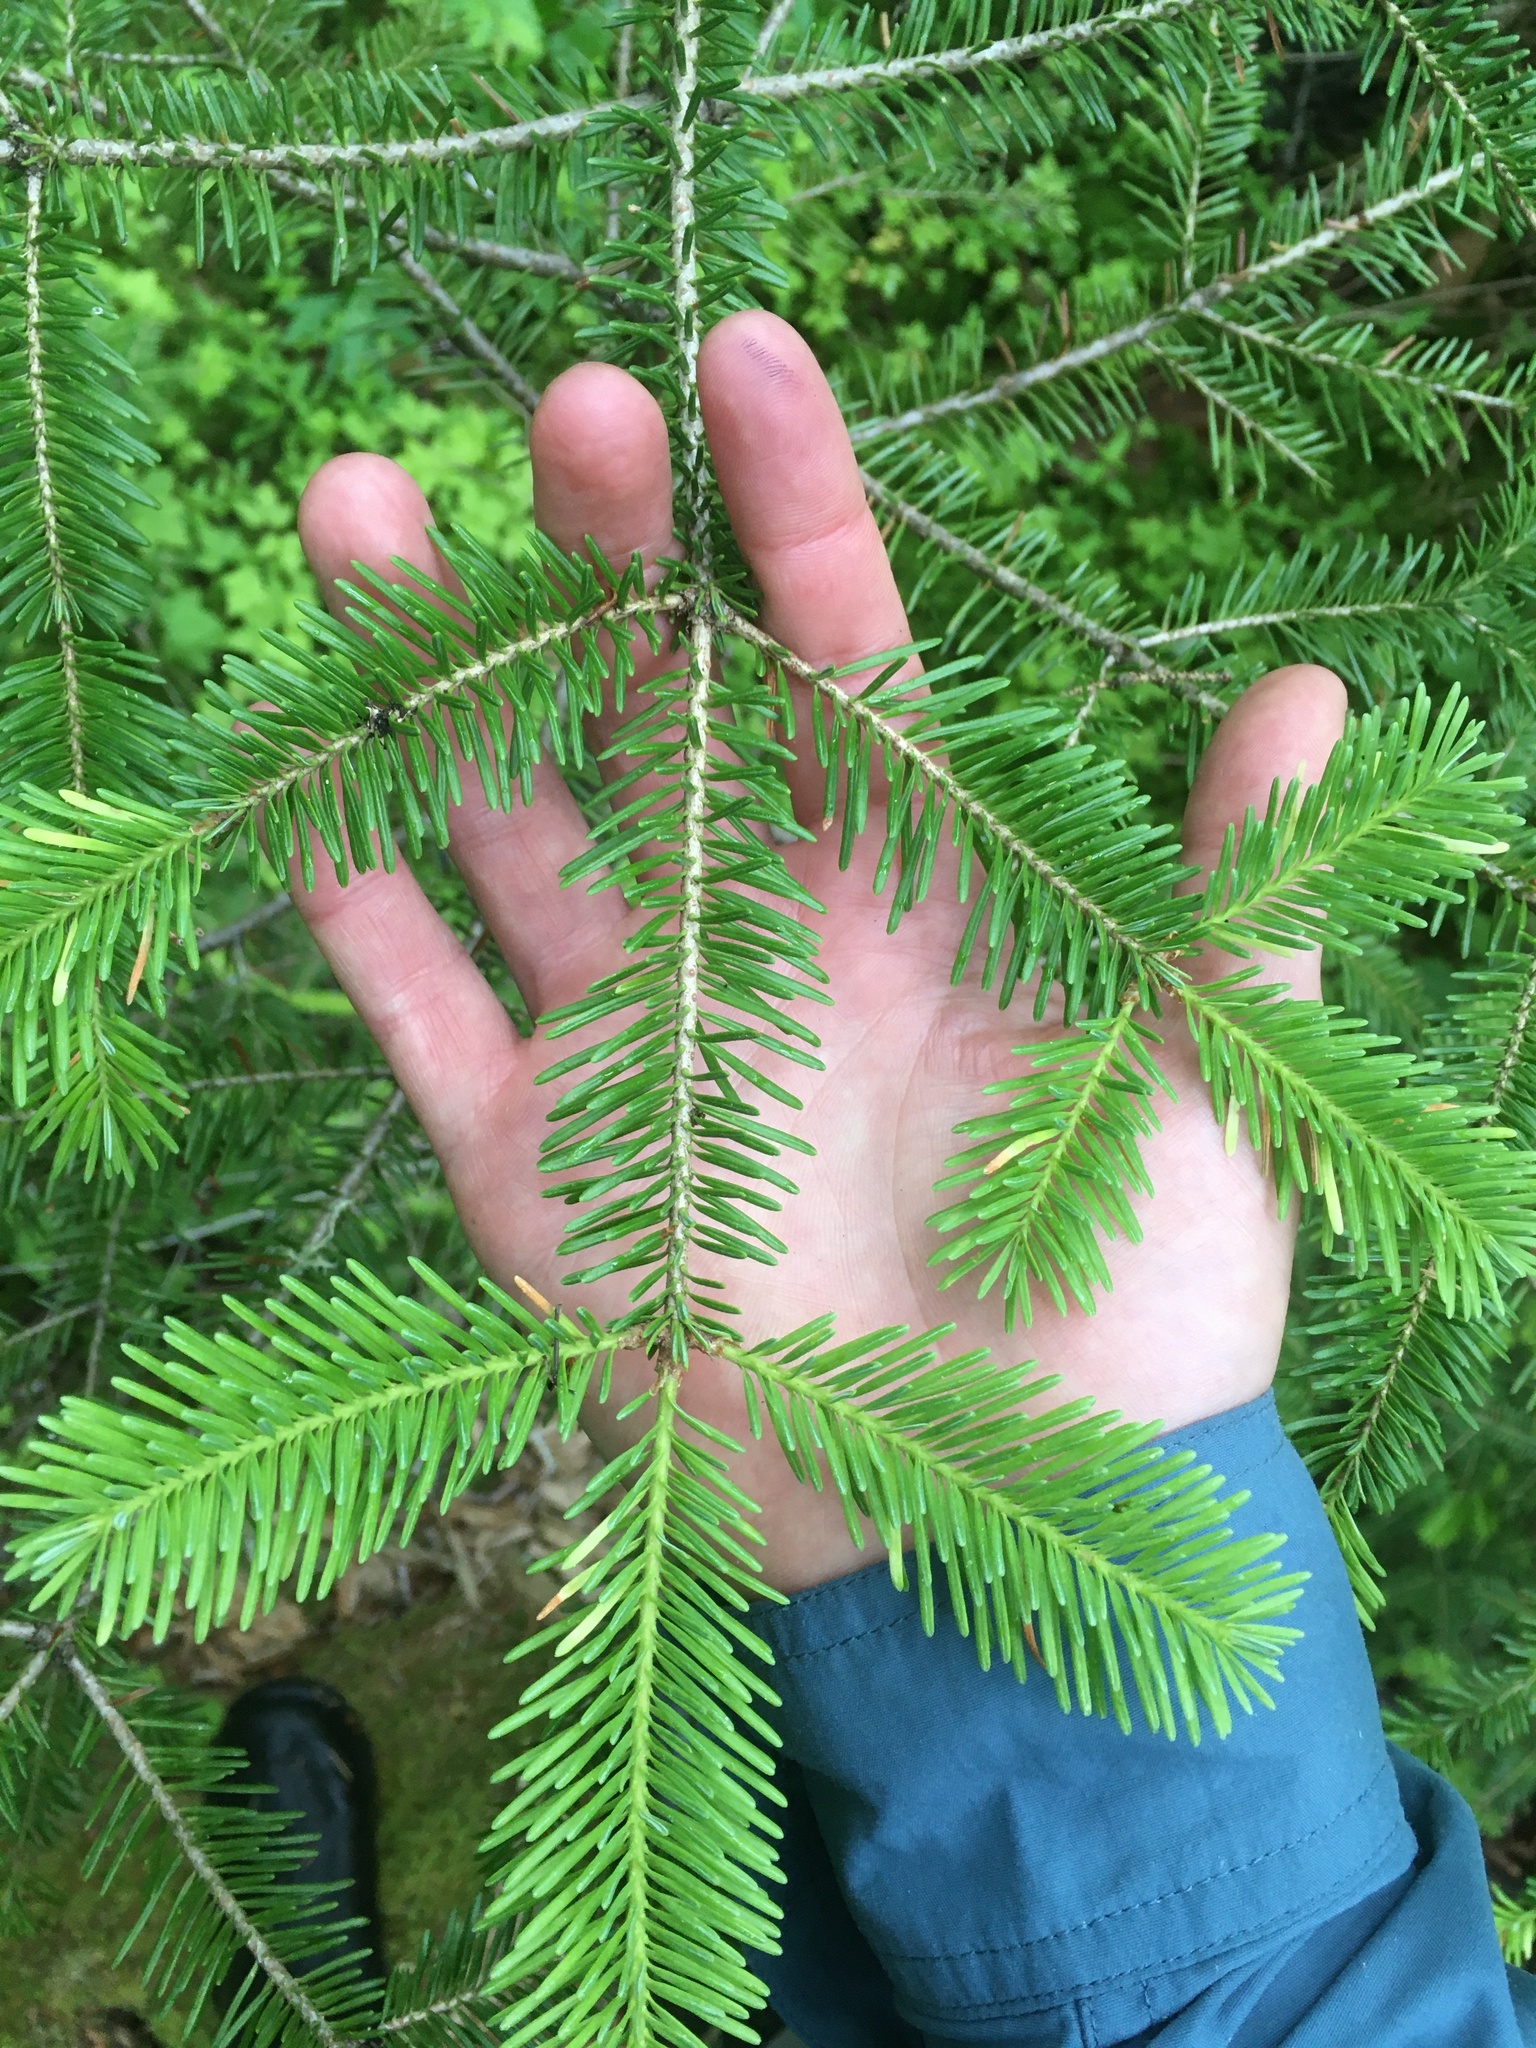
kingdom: Plantae
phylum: Tracheophyta
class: Pinopsida
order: Pinales
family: Pinaceae
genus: Abies
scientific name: Abies balsamea
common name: Balsam fir
